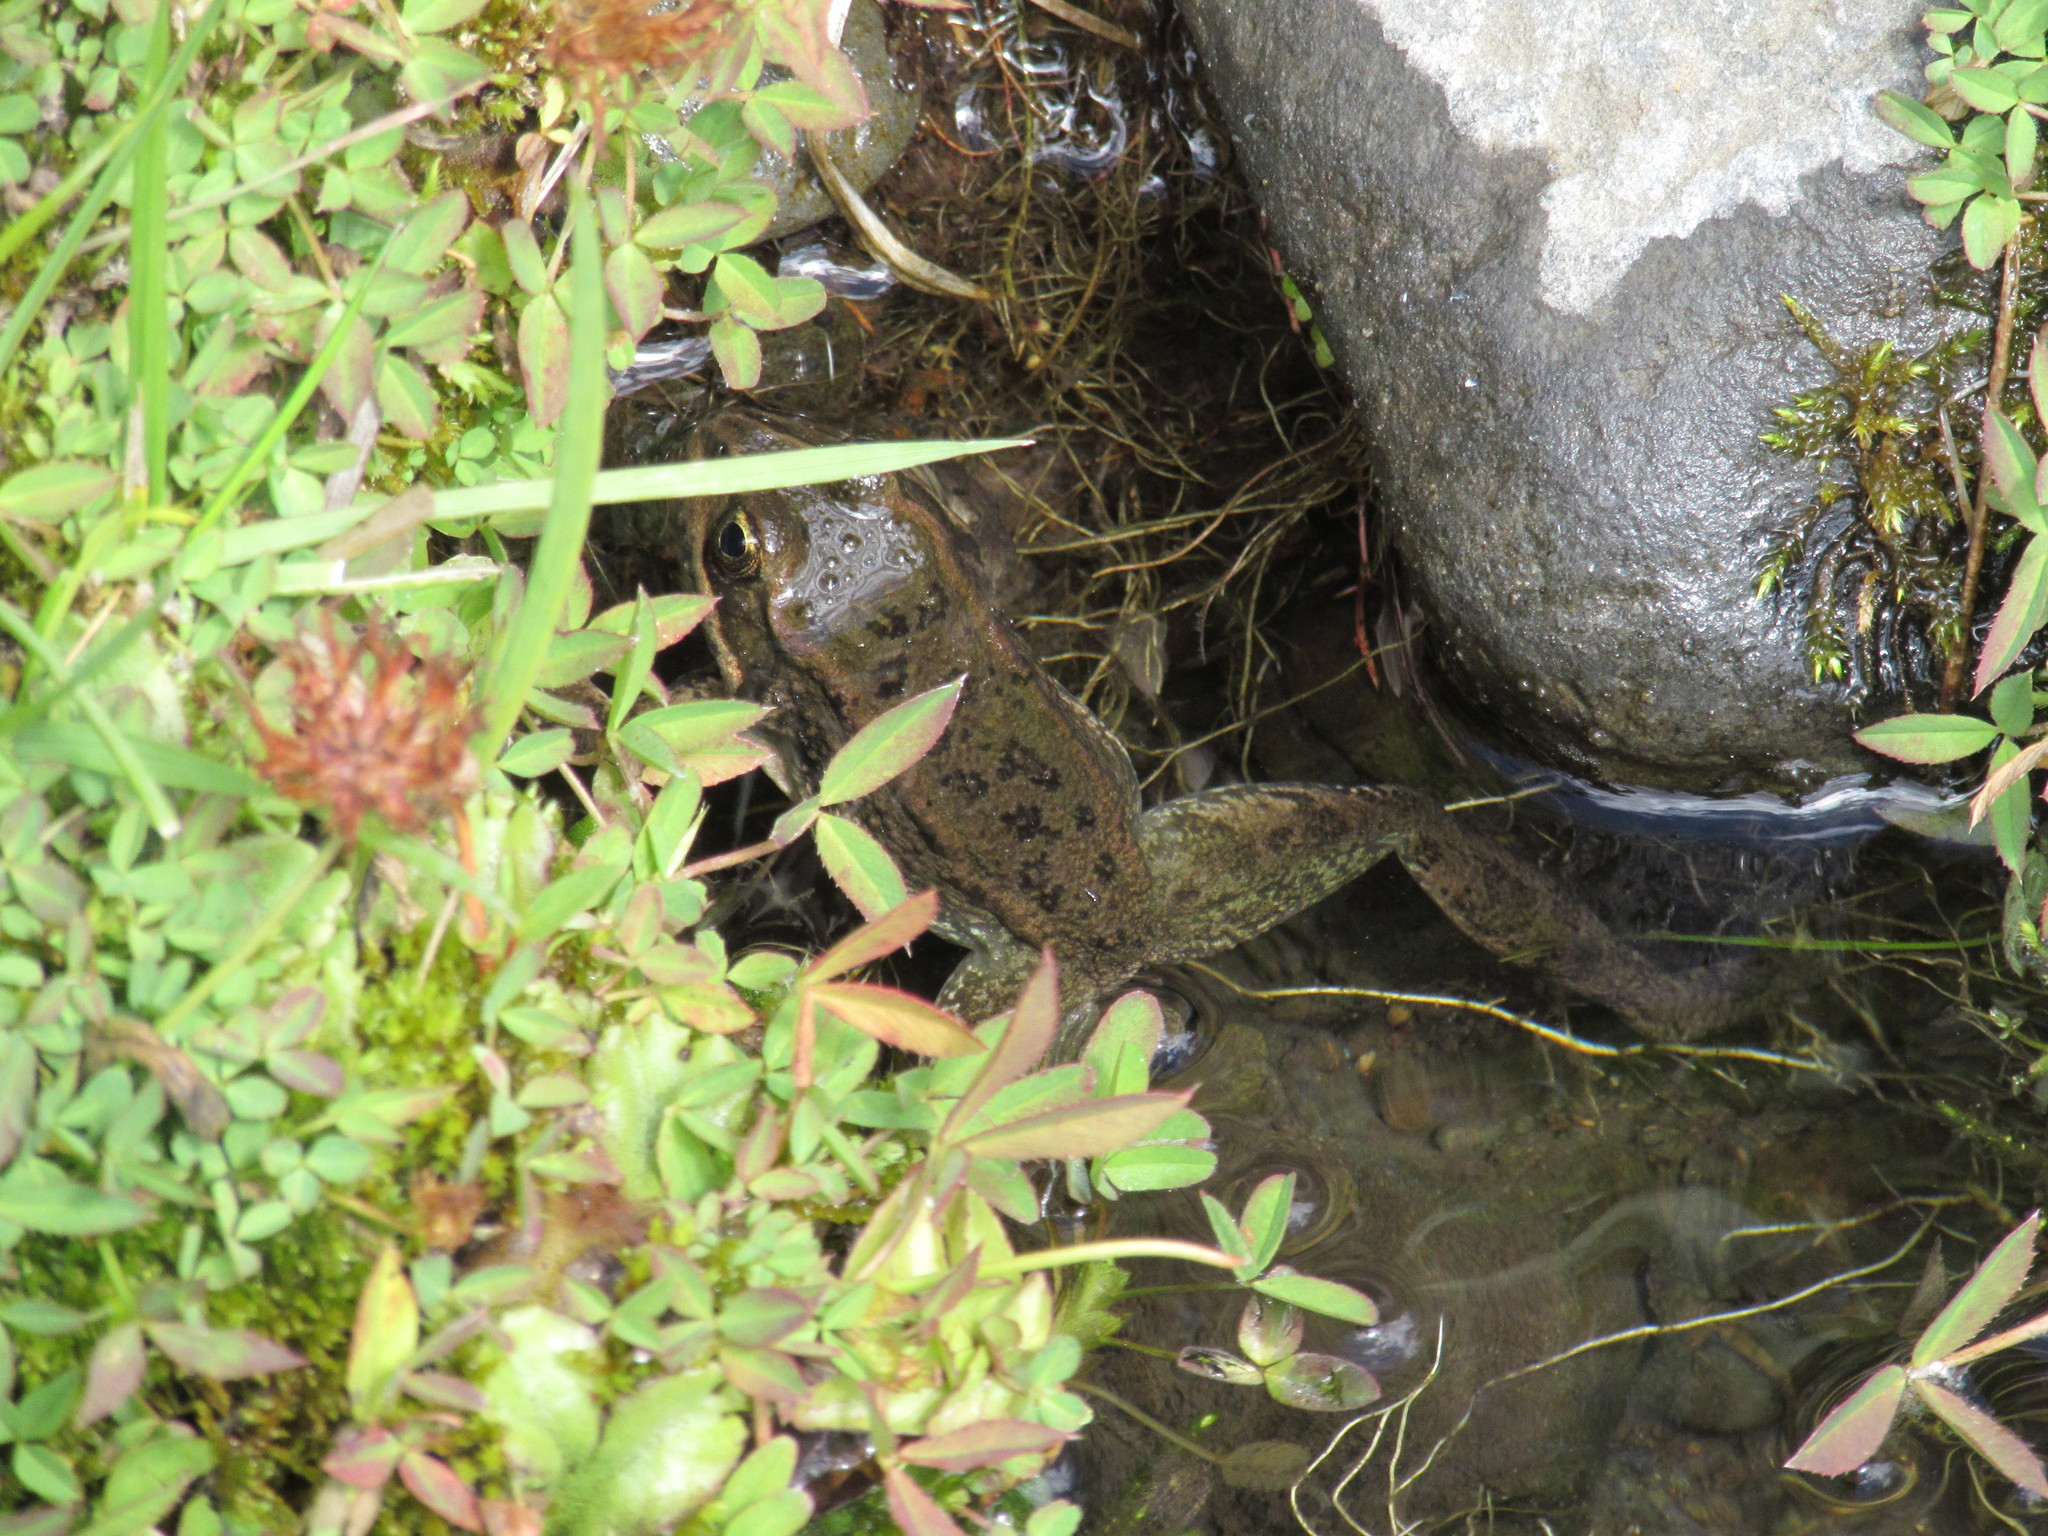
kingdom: Animalia
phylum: Chordata
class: Amphibia
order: Anura
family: Ranidae
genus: Rana
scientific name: Rana luteiventris
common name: Columbia spotted frog
